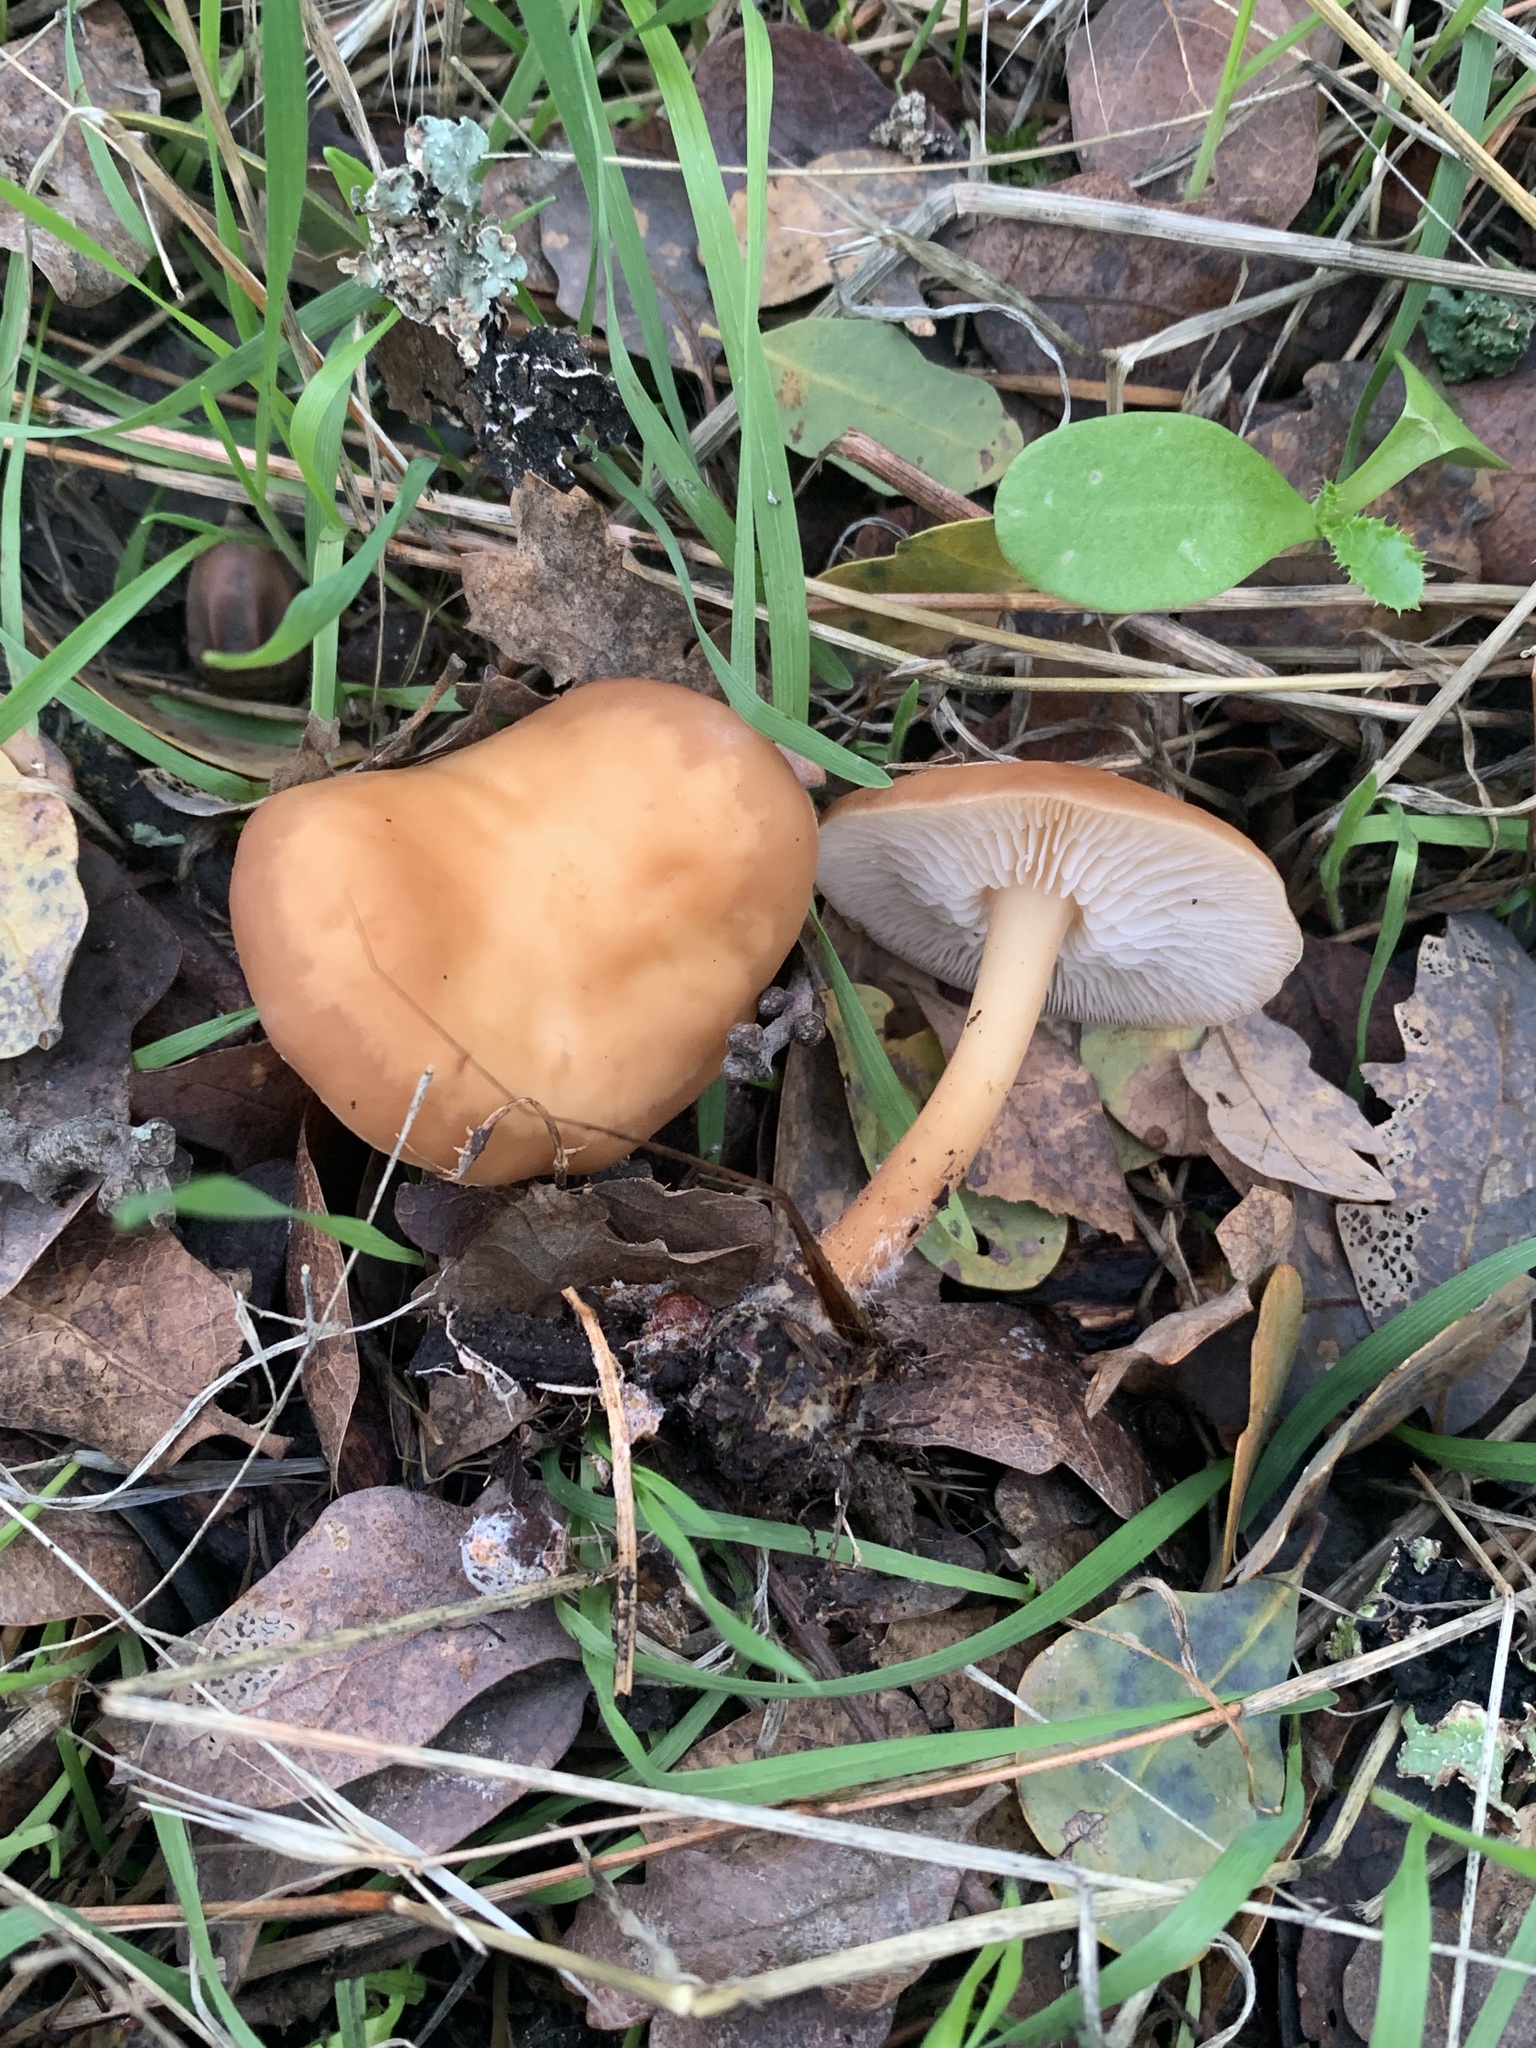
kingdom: Fungi
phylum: Basidiomycota
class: Agaricomycetes
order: Agaricales
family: Omphalotaceae
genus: Gymnopus
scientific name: Gymnopus dryophilus
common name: Penny top
